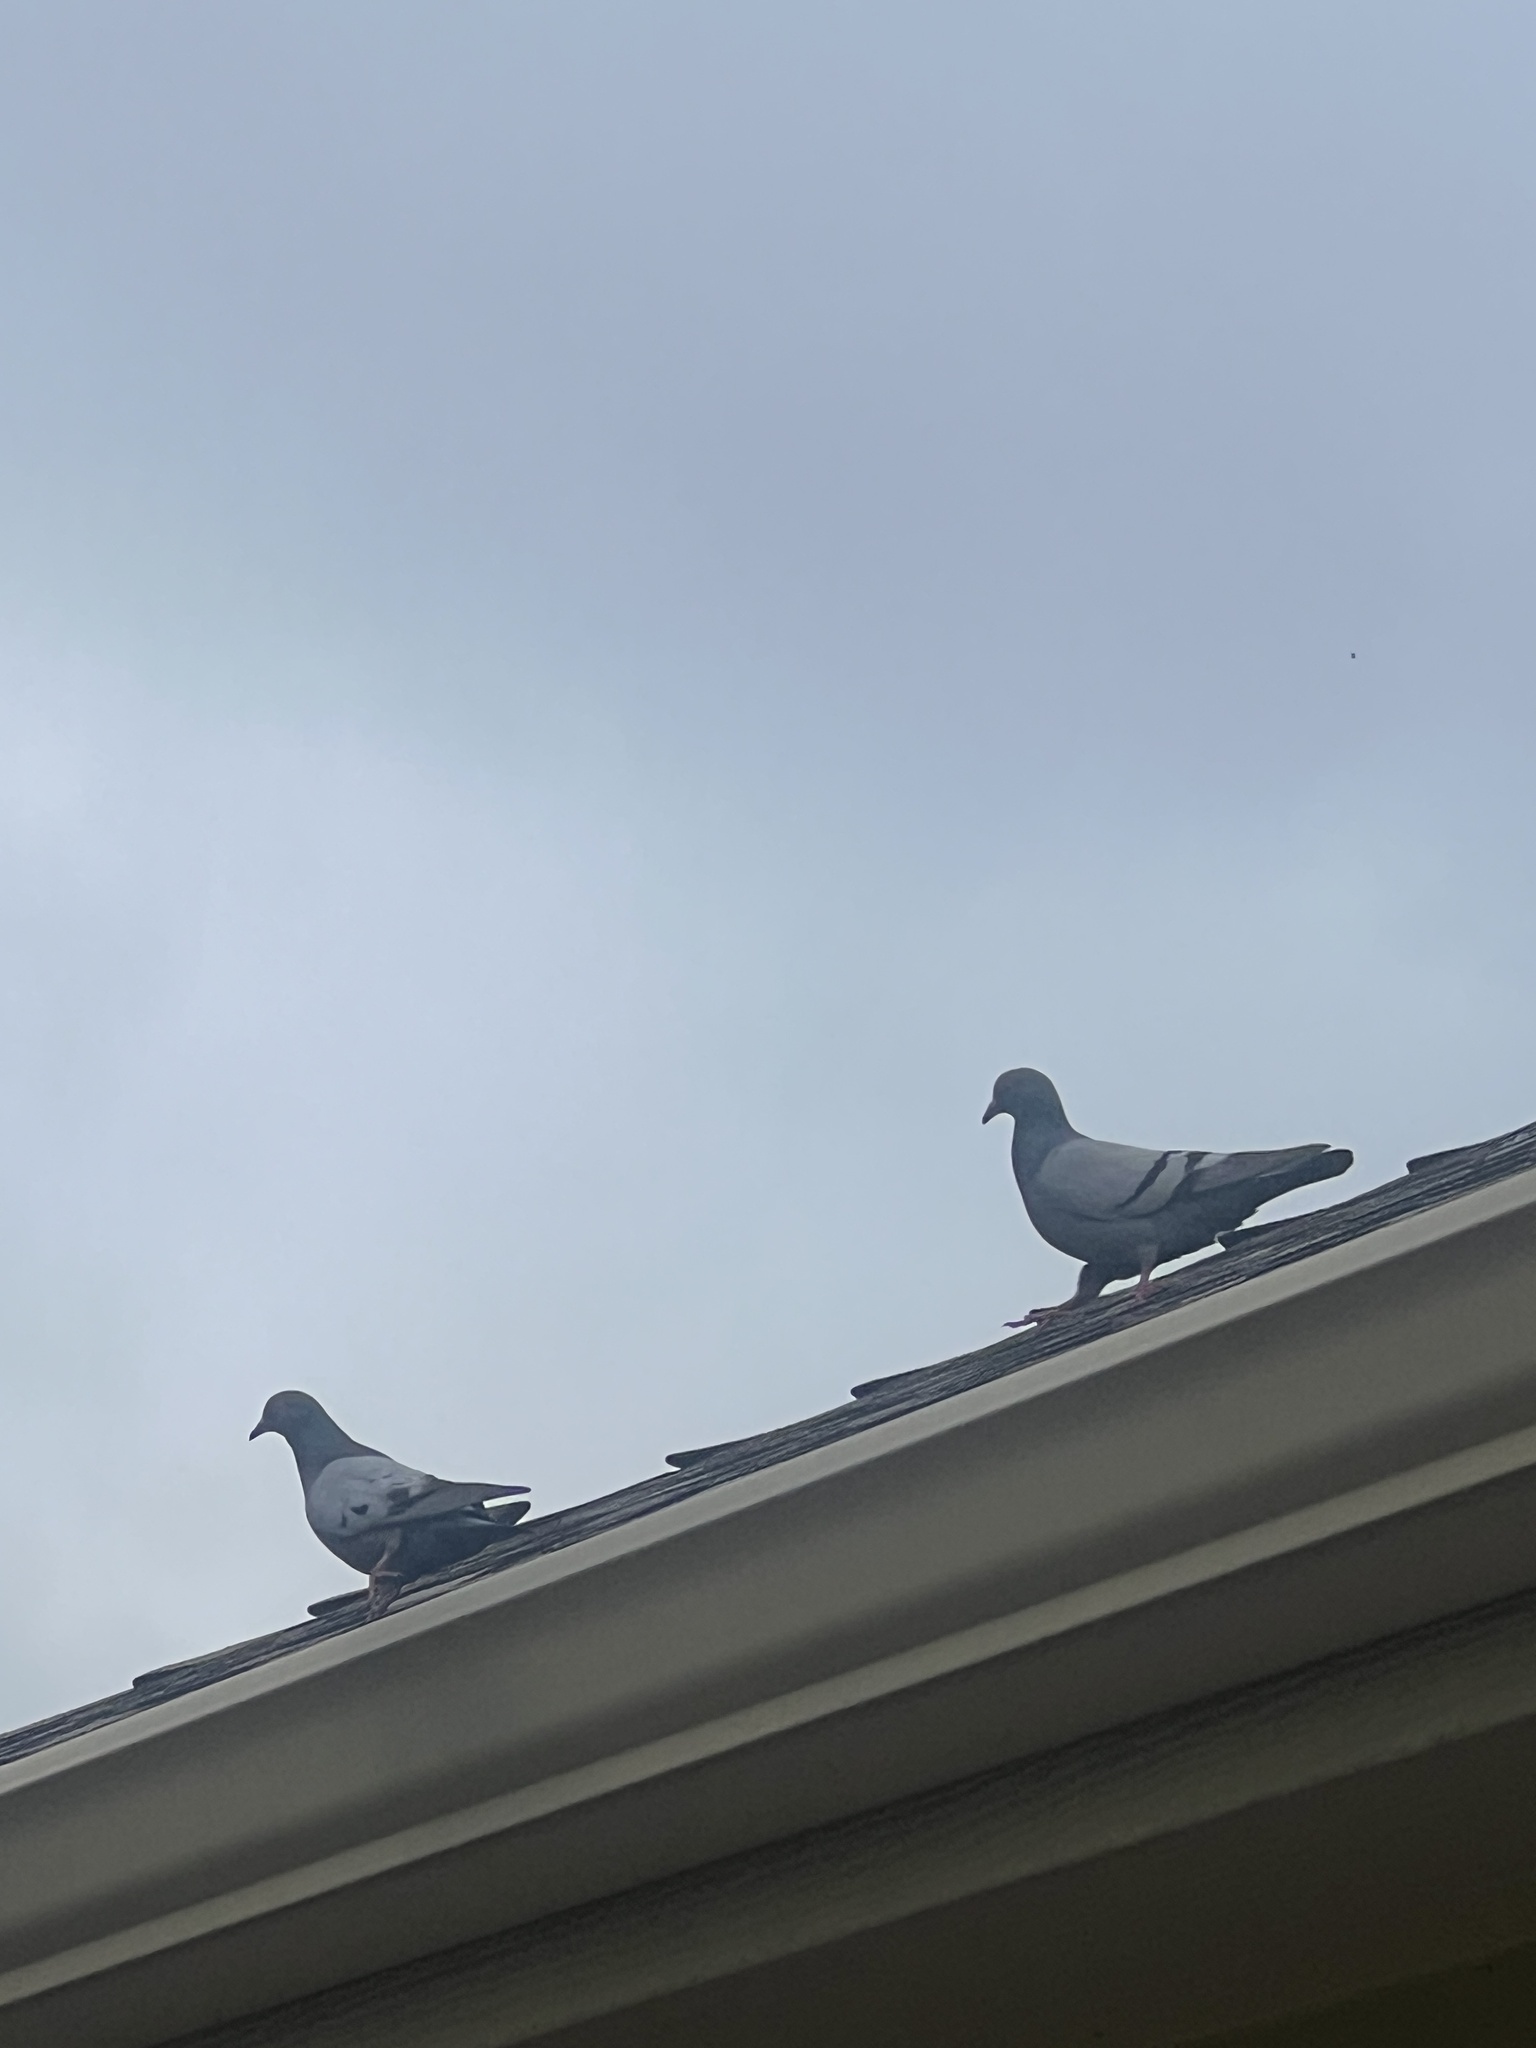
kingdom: Animalia
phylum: Chordata
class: Aves
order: Columbiformes
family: Columbidae
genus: Columba
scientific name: Columba livia
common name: Rock pigeon
